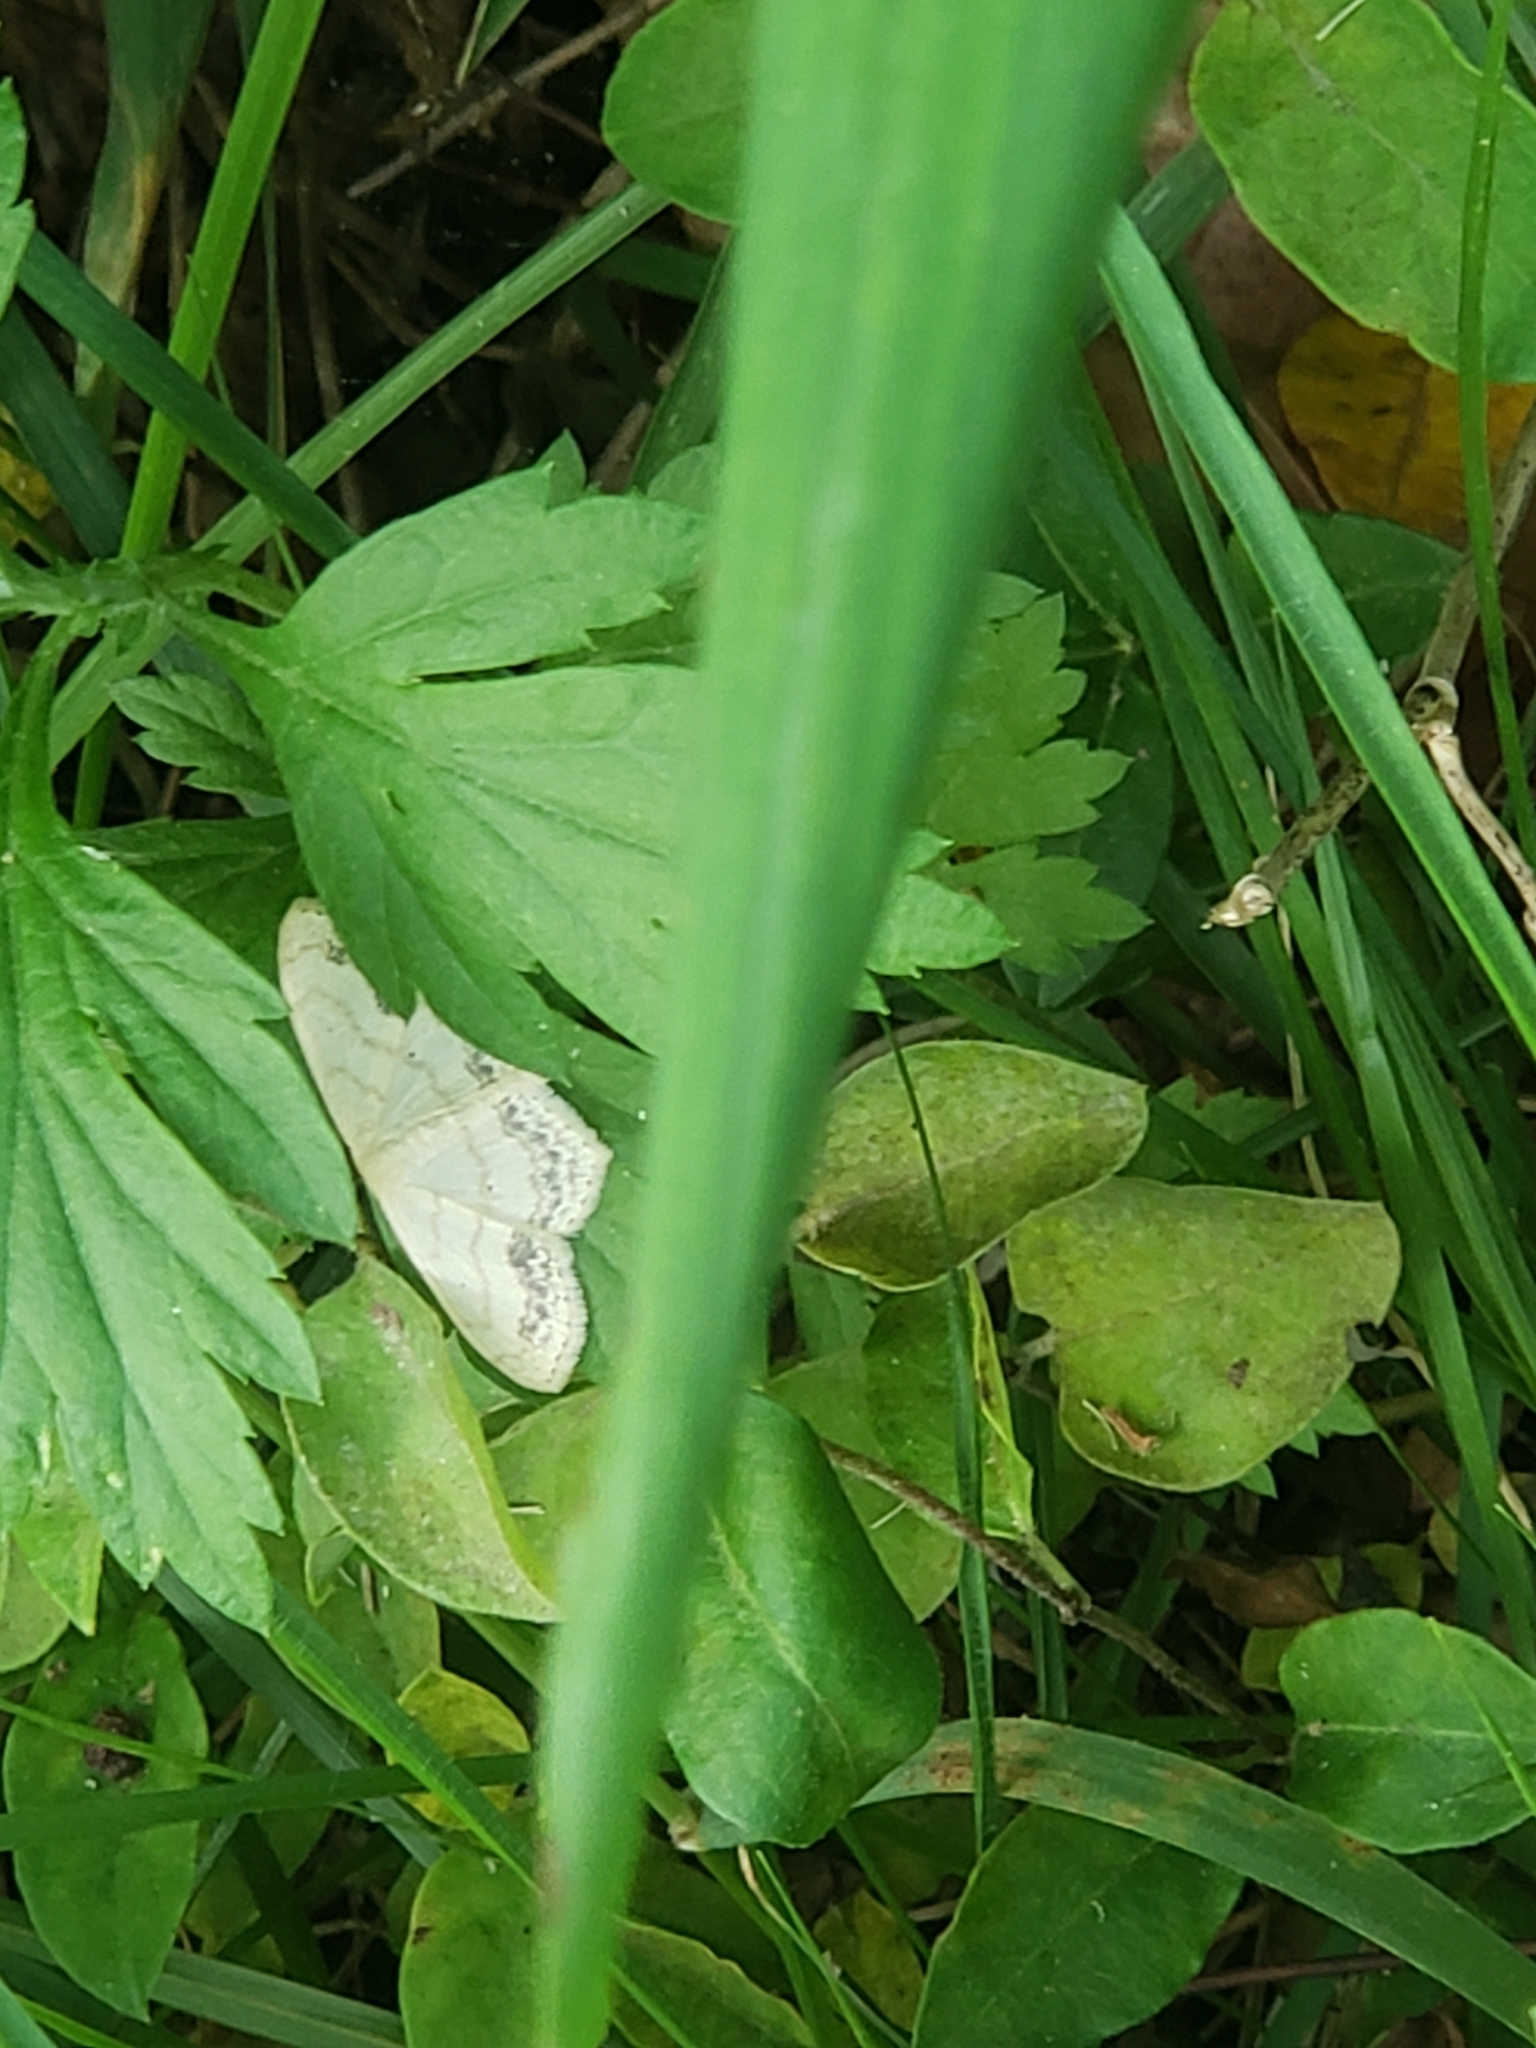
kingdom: Animalia
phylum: Arthropoda
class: Insecta
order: Lepidoptera
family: Geometridae
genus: Scopula
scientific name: Scopula limboundata
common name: Large lace border
